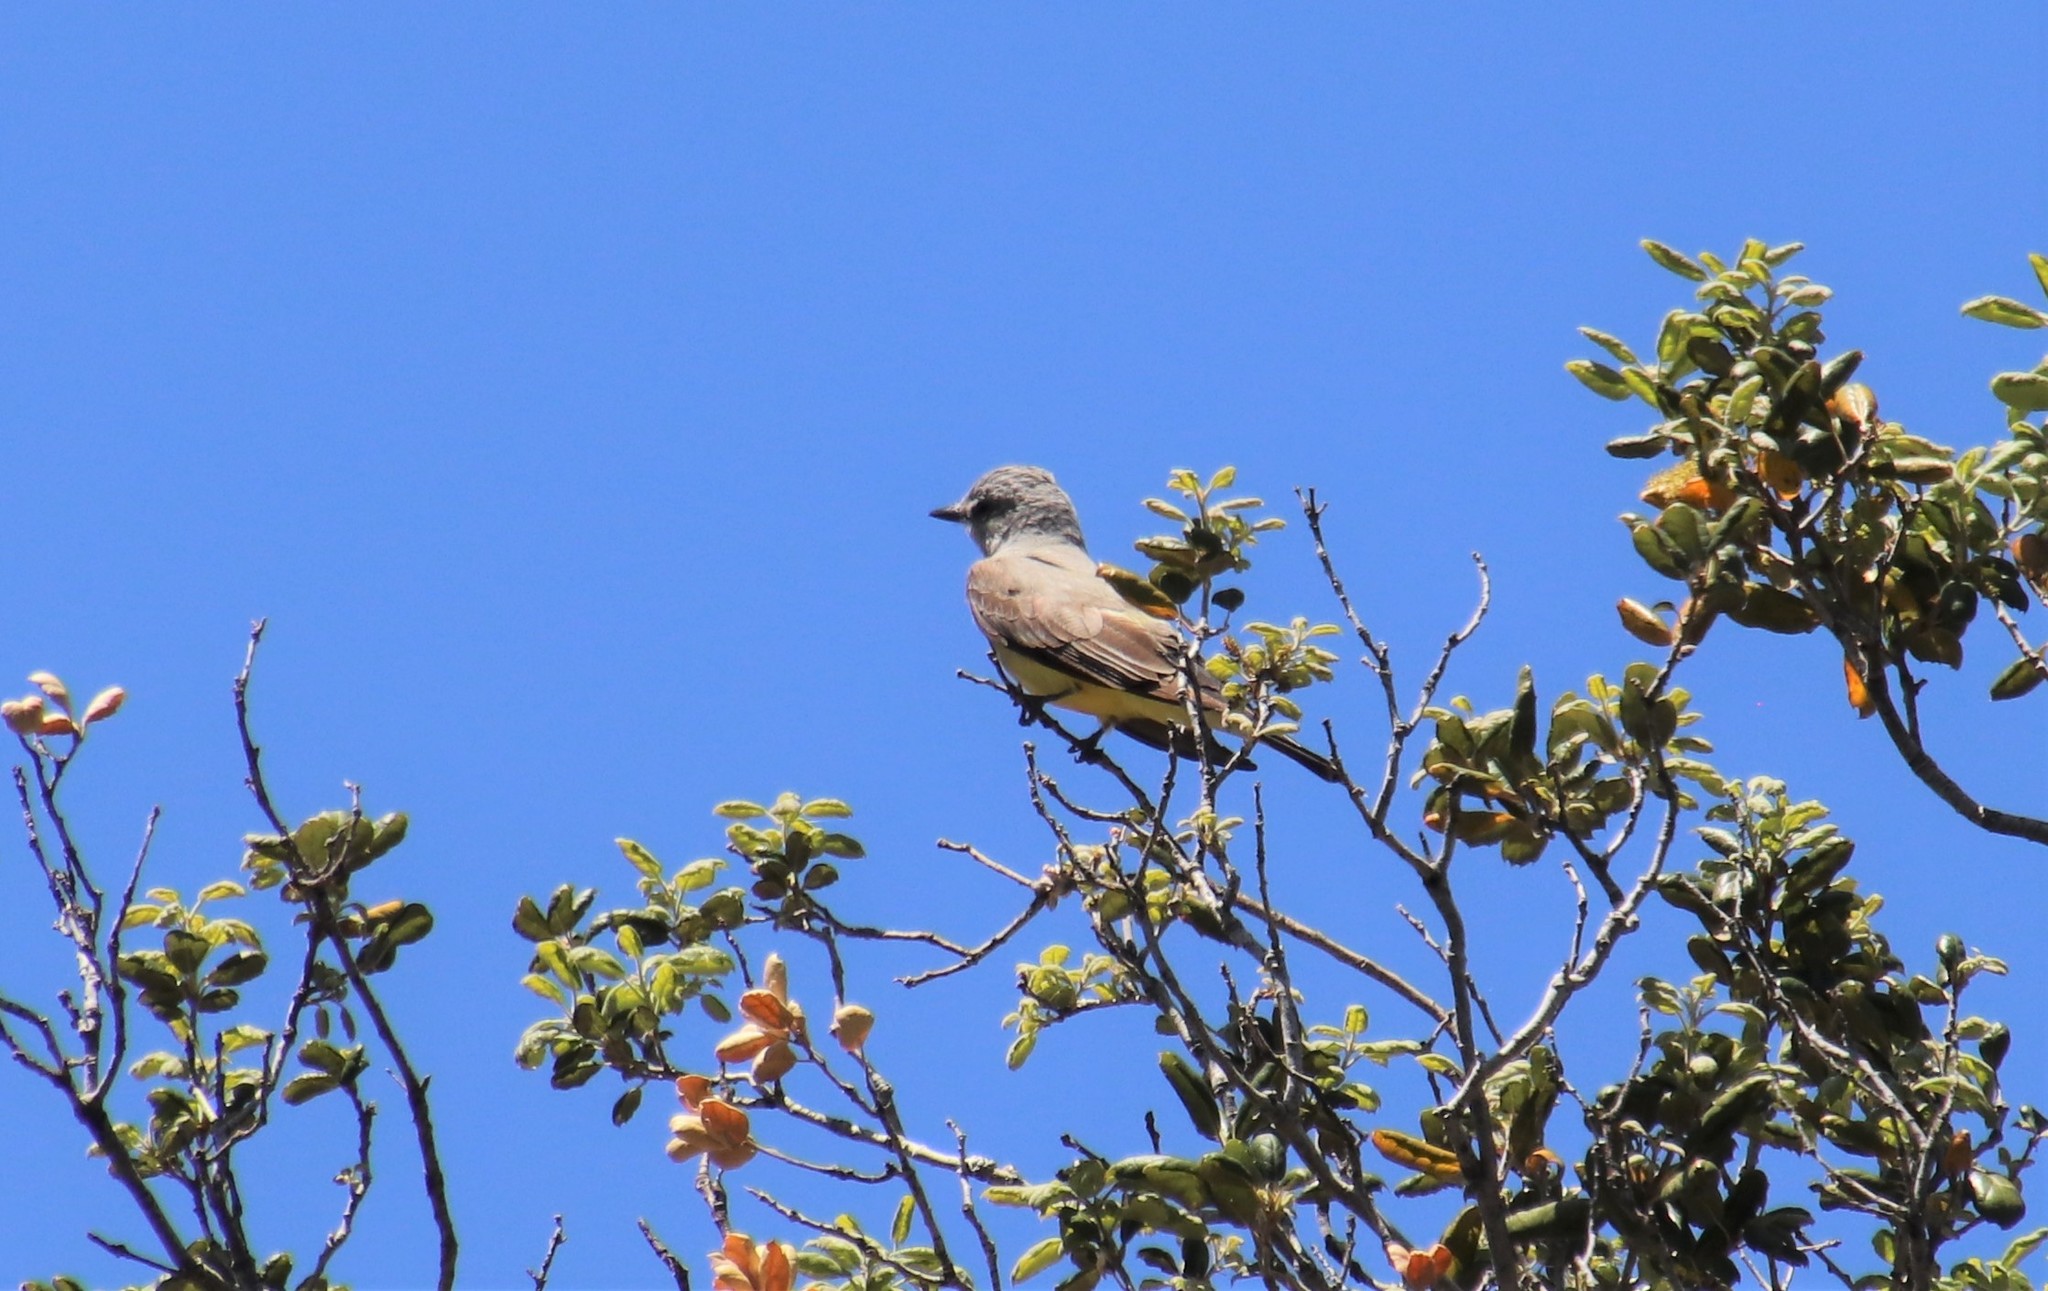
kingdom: Animalia
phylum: Chordata
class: Aves
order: Passeriformes
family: Tyrannidae
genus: Tyrannus
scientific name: Tyrannus verticalis
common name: Western kingbird
